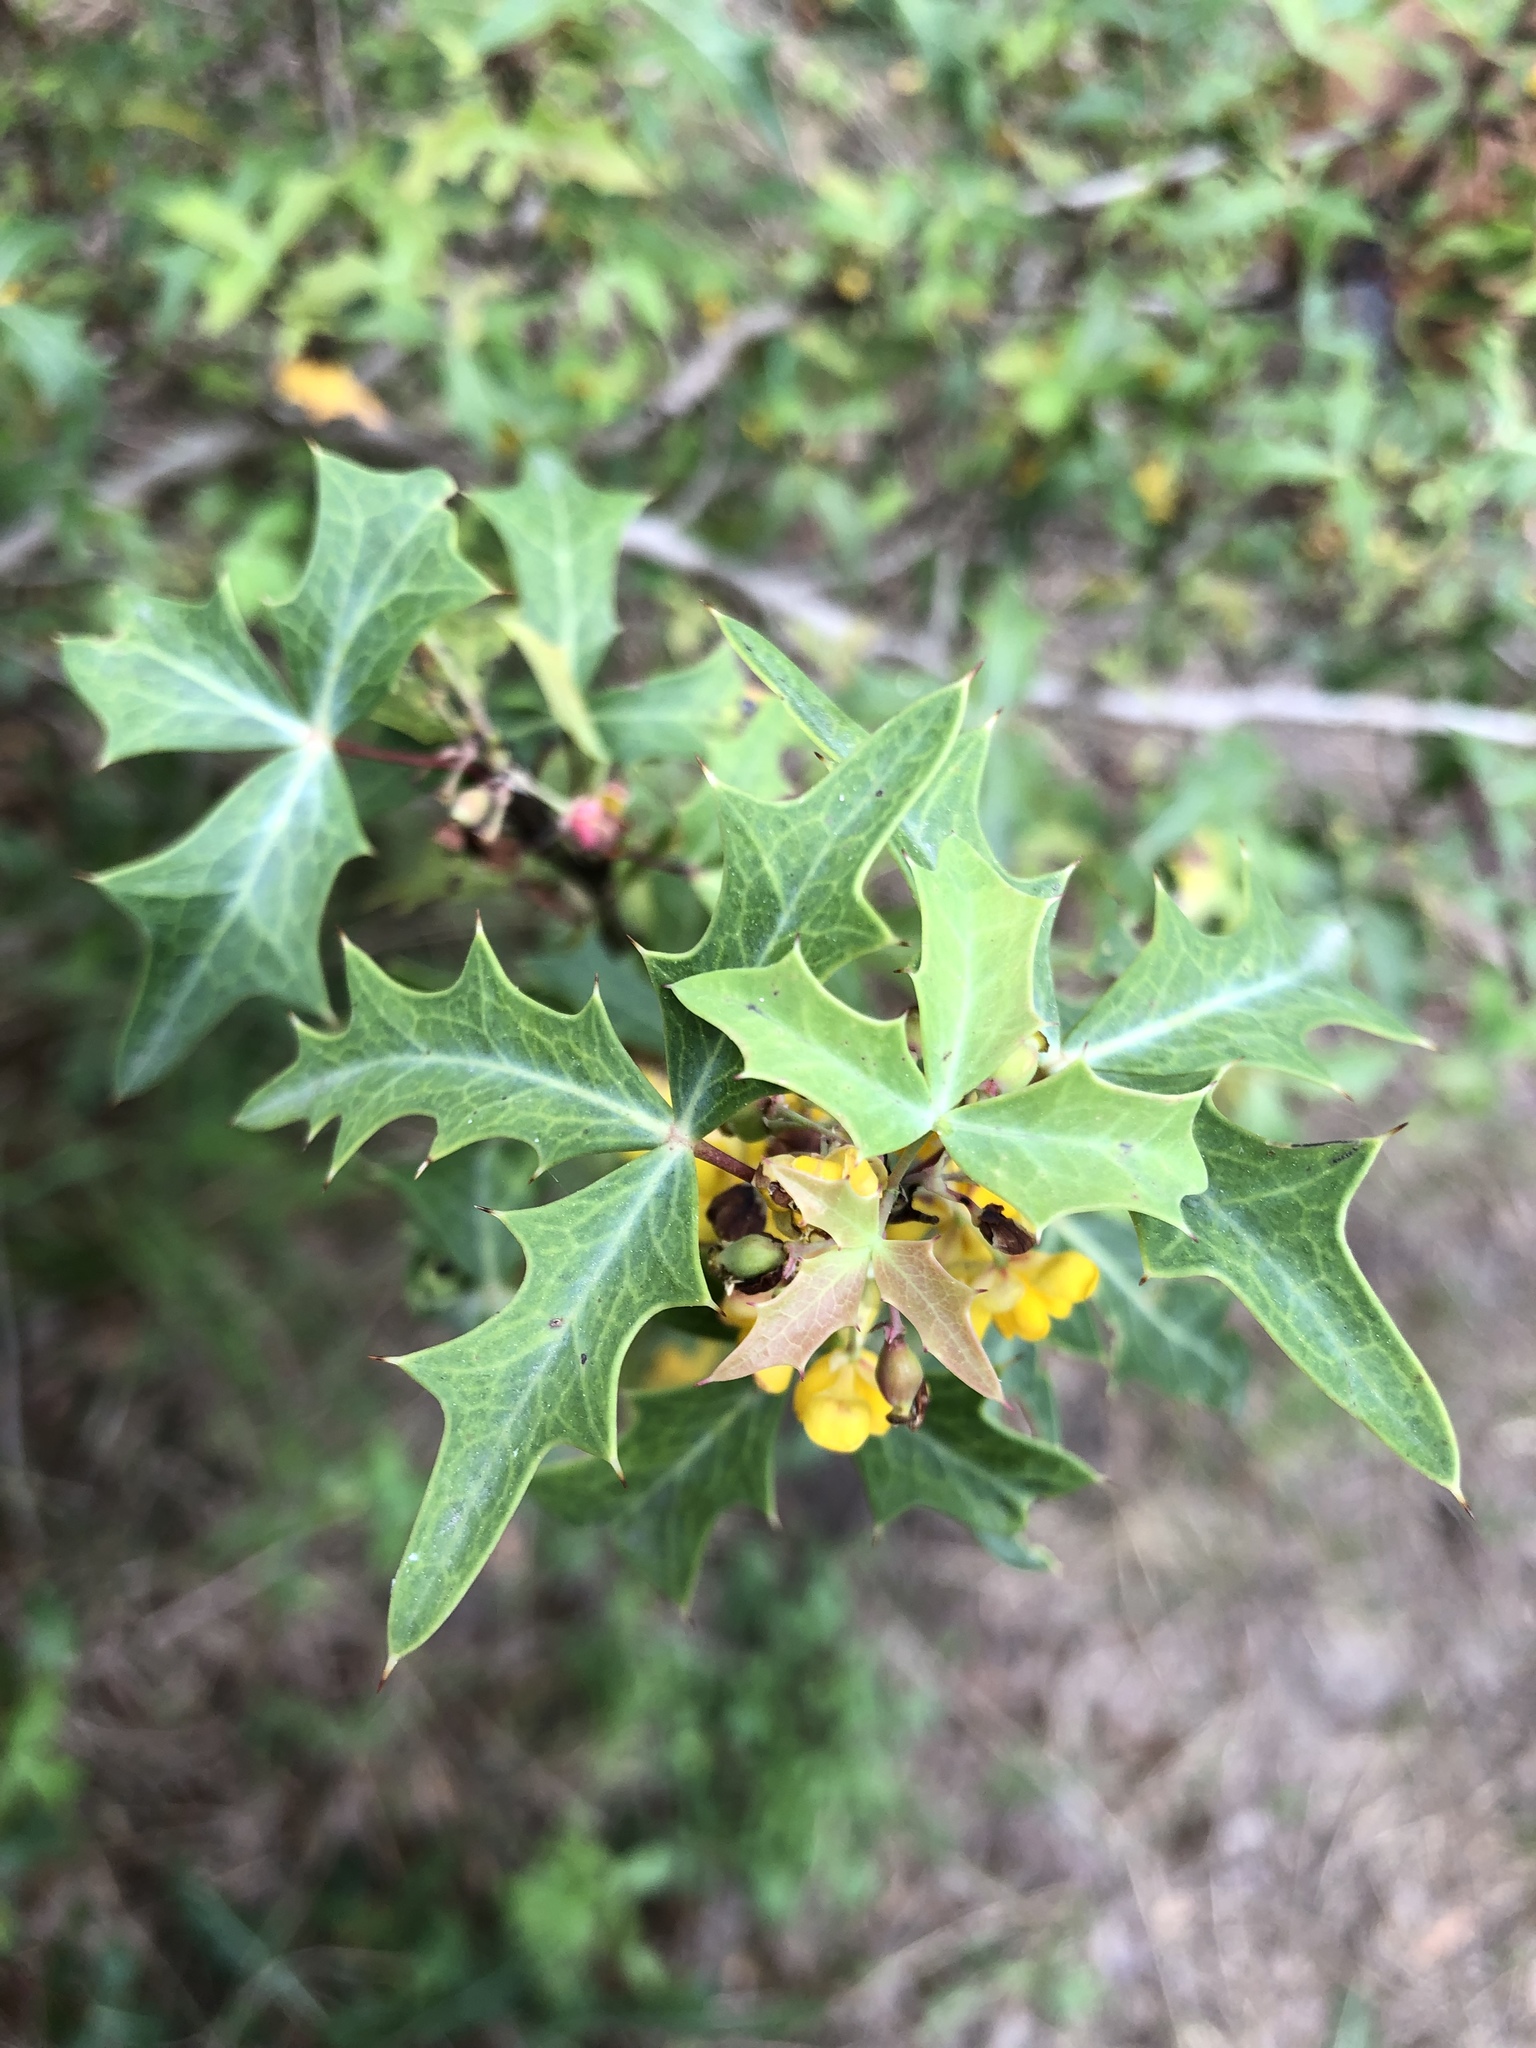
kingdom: Plantae
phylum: Tracheophyta
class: Magnoliopsida
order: Ranunculales
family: Berberidaceae
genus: Alloberberis
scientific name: Alloberberis trifoliolata
